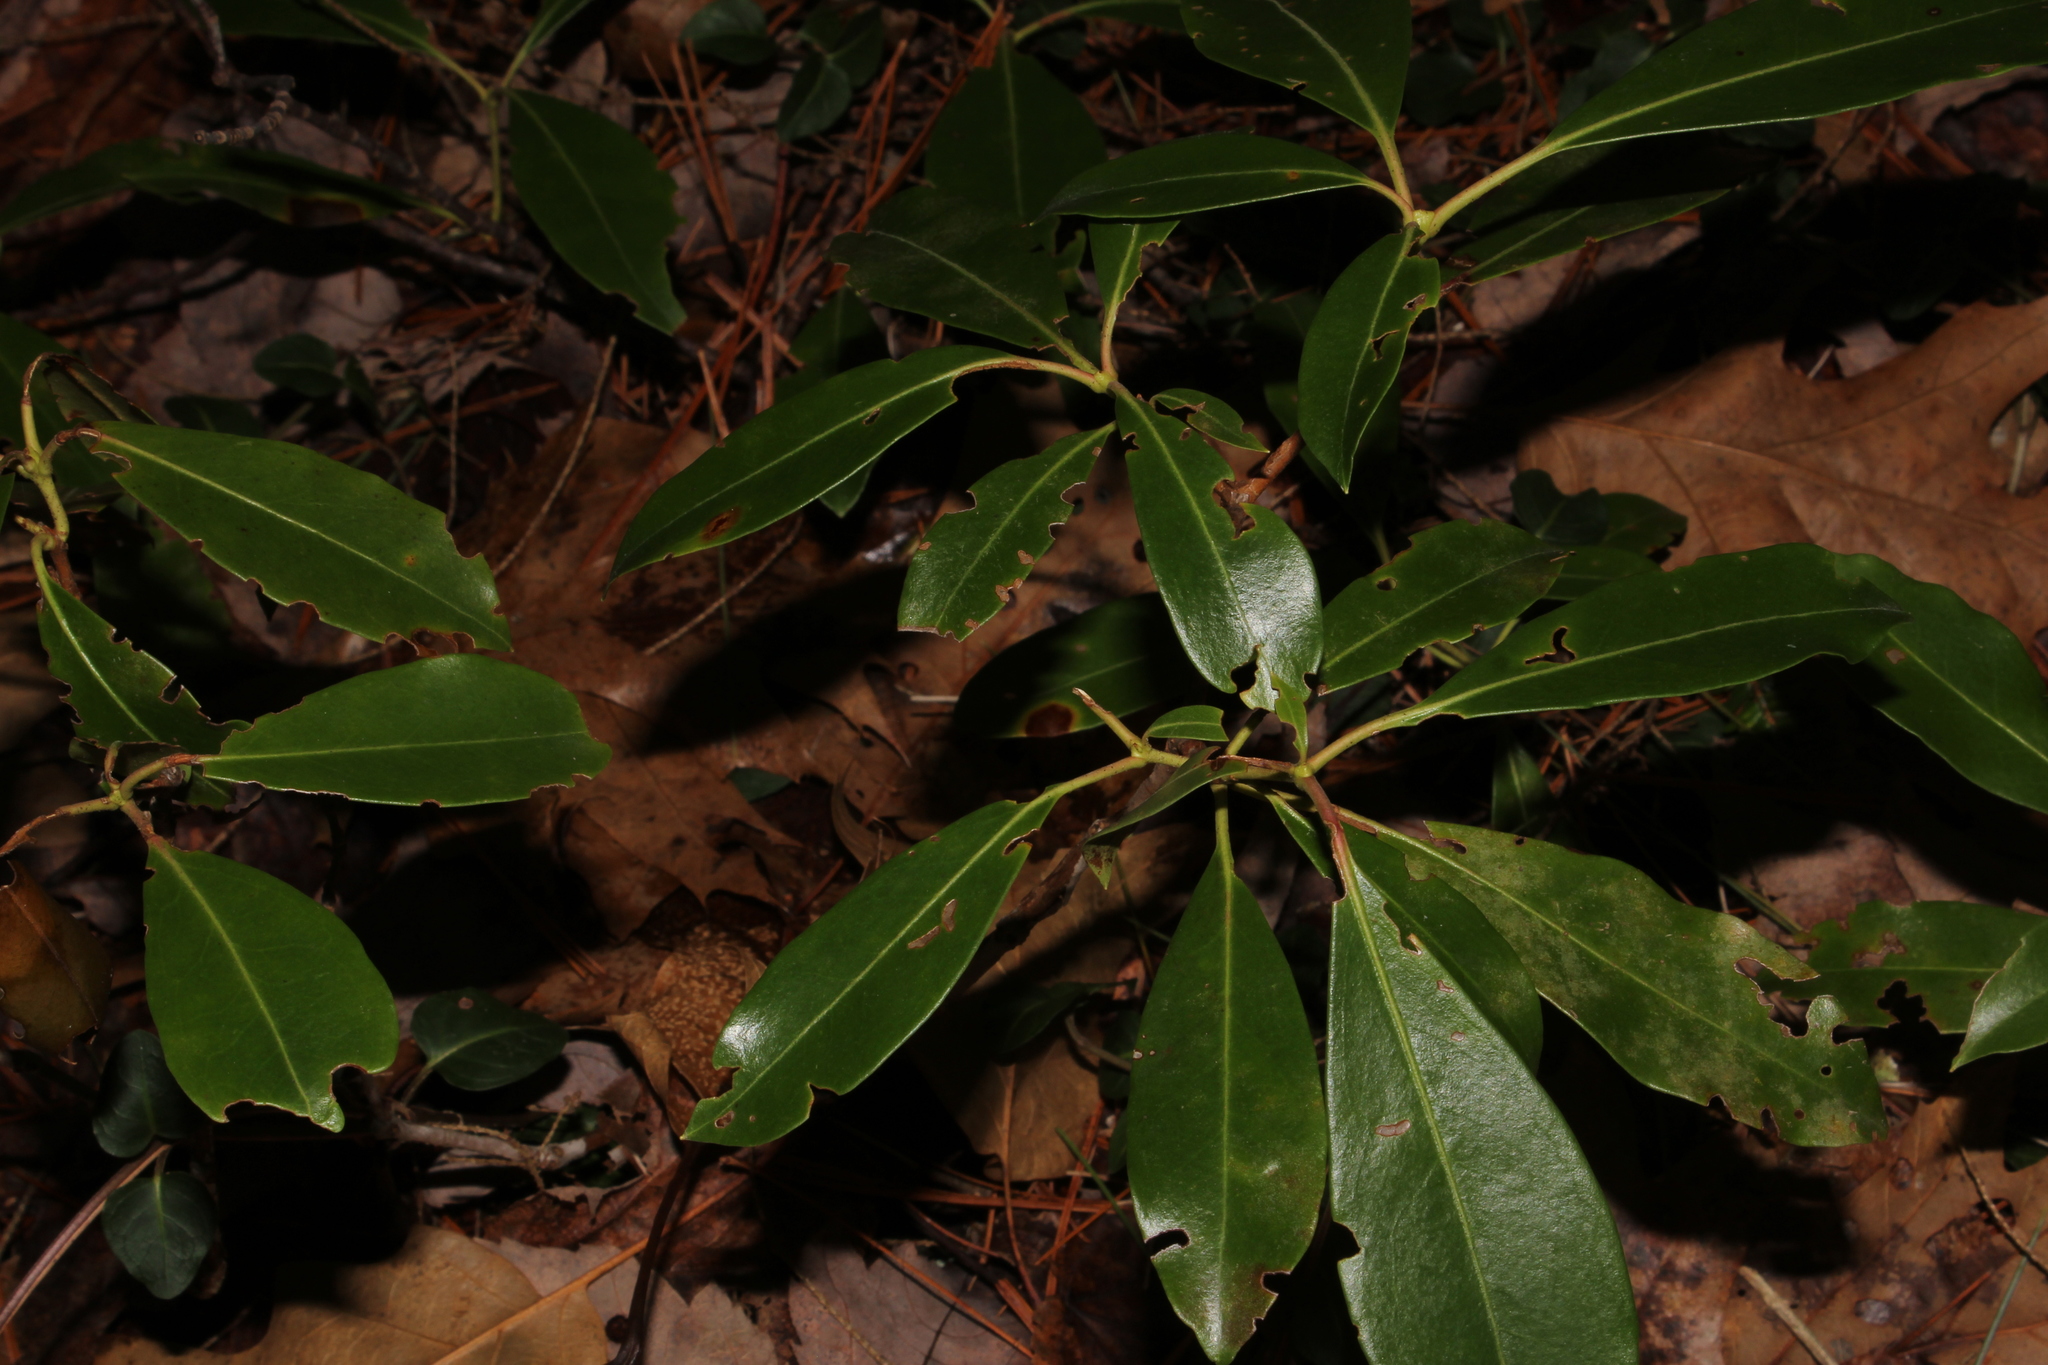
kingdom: Plantae
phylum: Tracheophyta
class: Magnoliopsida
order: Ericales
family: Ericaceae
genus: Kalmia
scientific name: Kalmia latifolia
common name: Mountain-laurel
